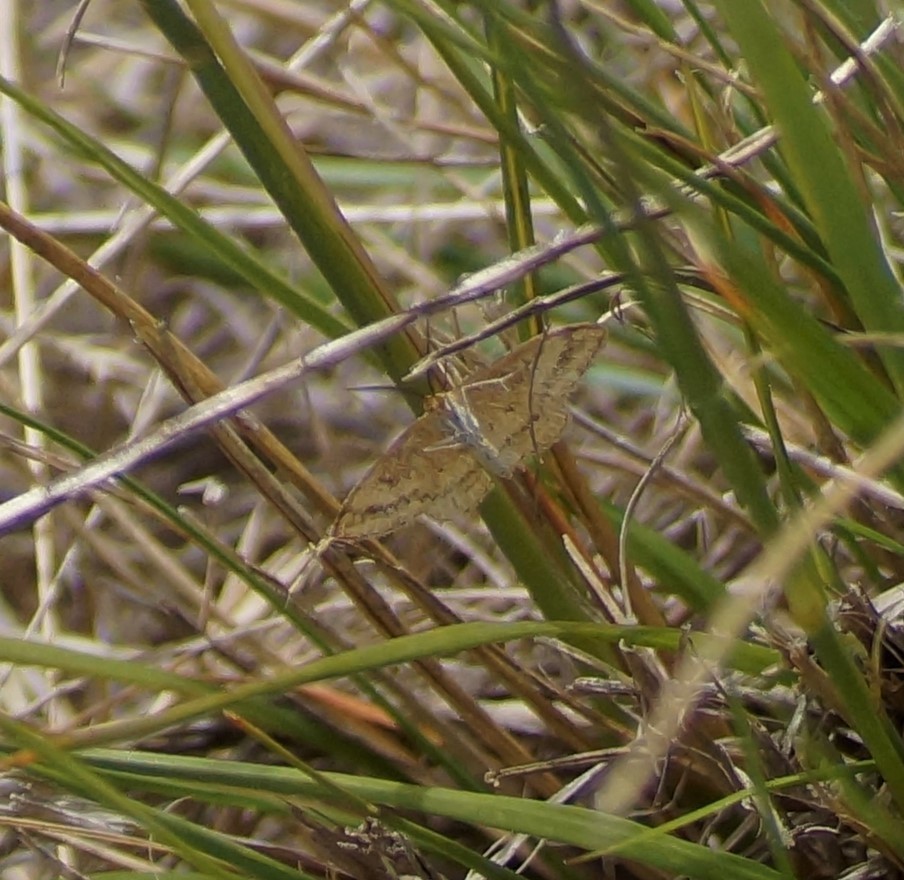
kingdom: Animalia
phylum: Arthropoda
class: Insecta
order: Lepidoptera
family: Geometridae
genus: Scopula
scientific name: Scopula rubraria
